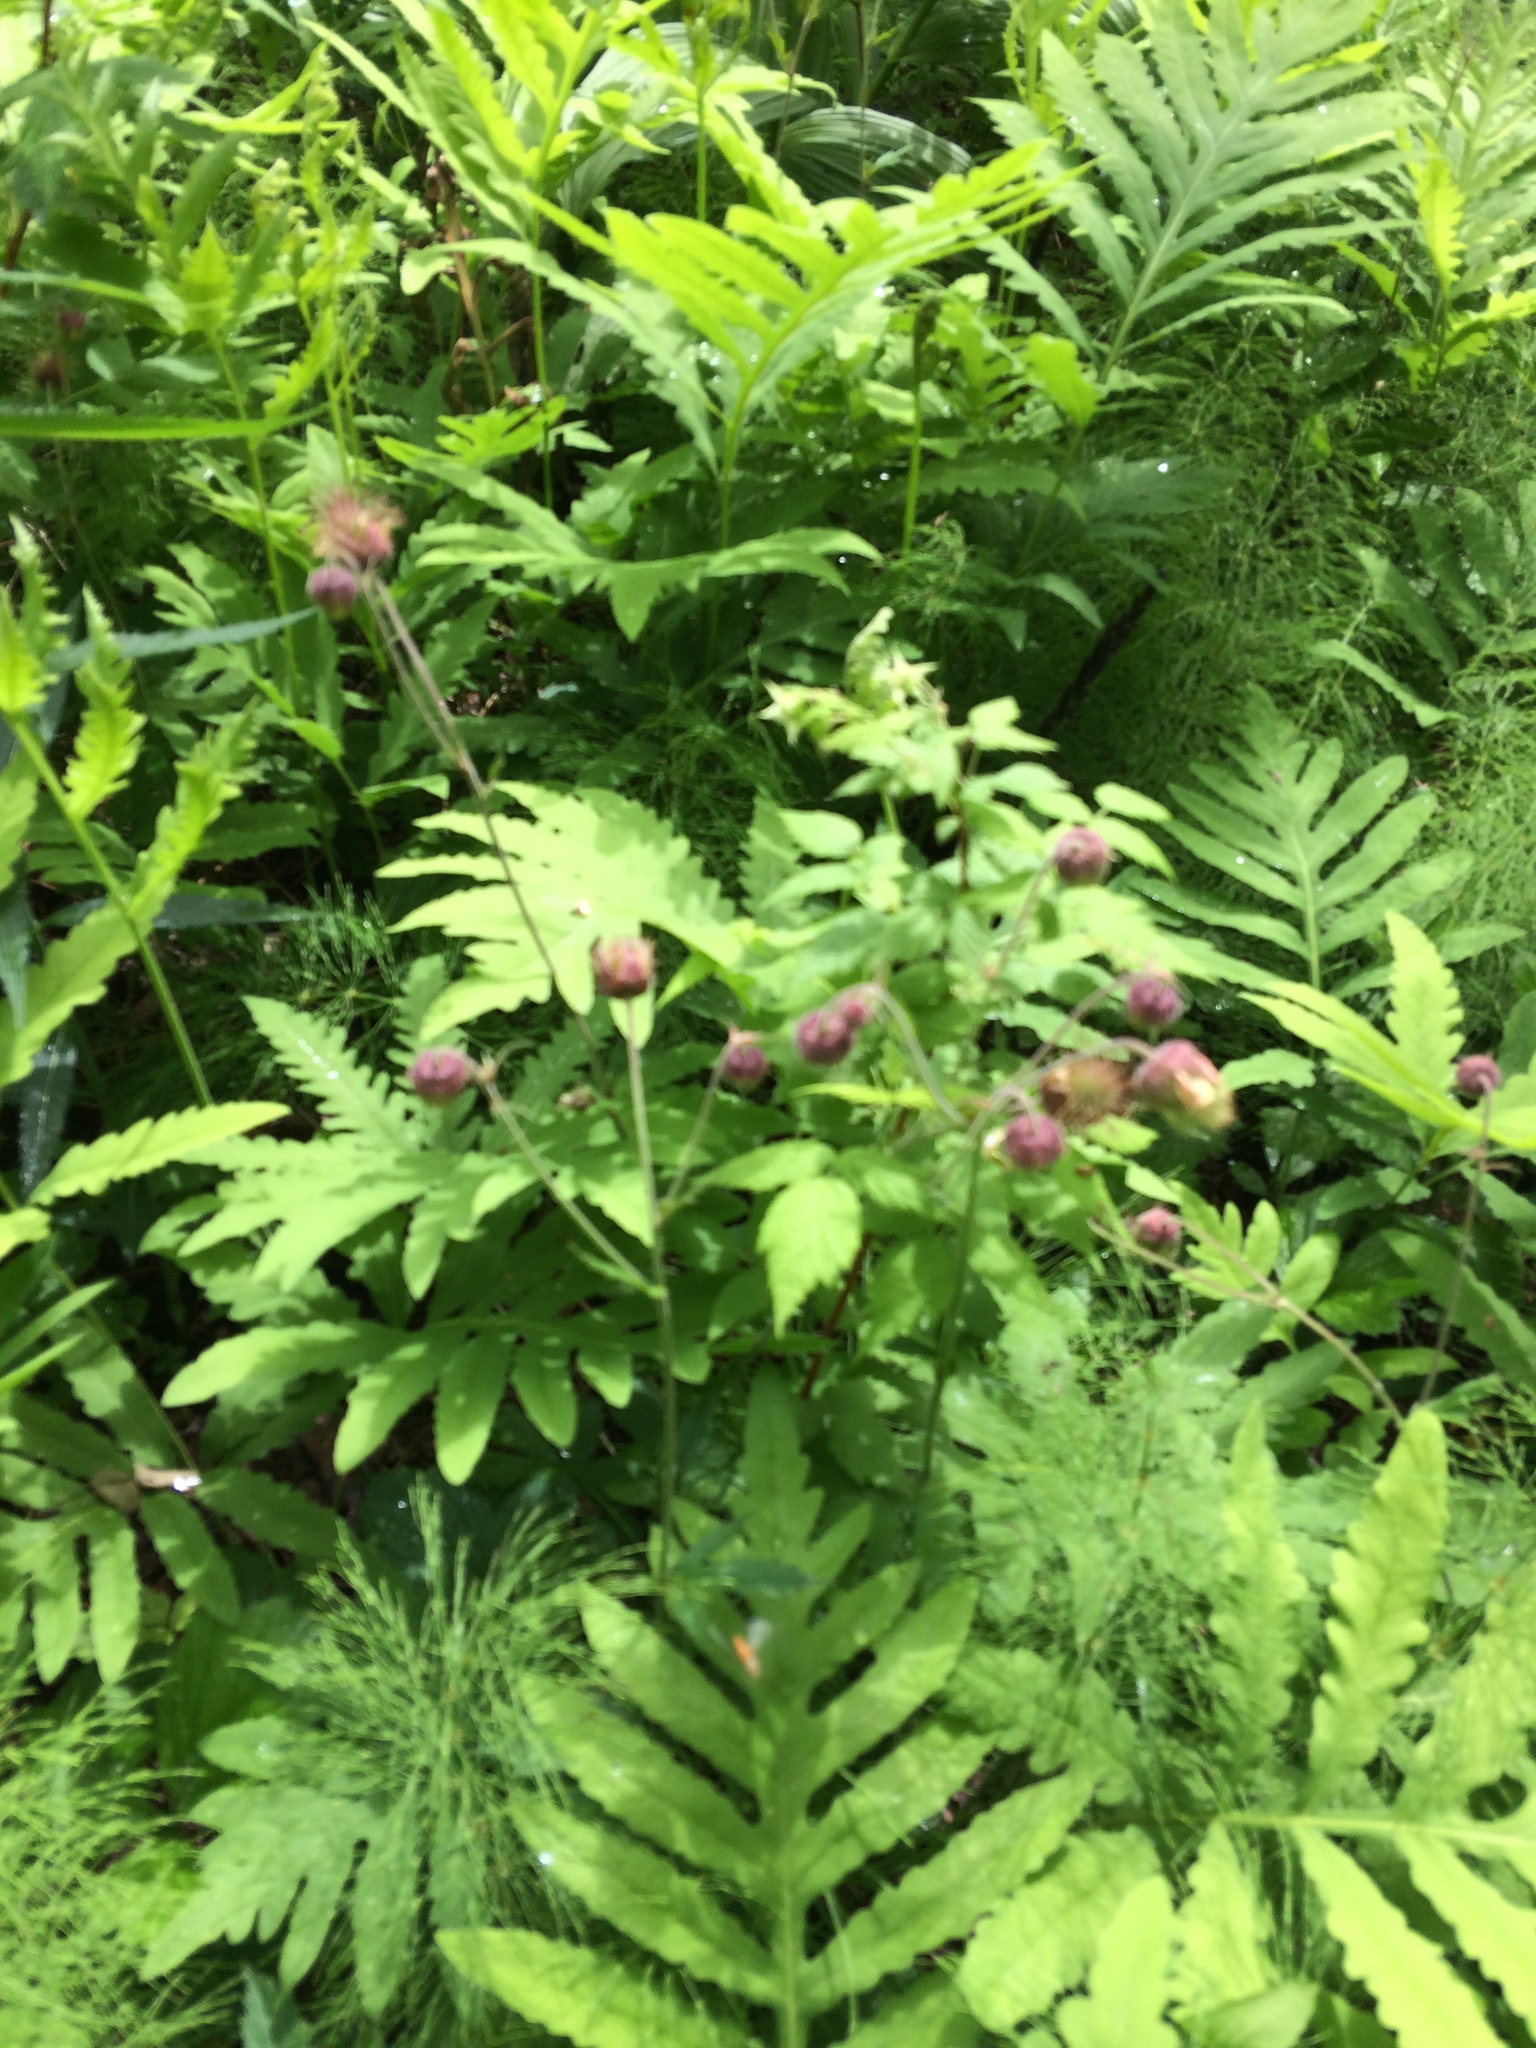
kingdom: Plantae
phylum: Tracheophyta
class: Magnoliopsida
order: Rosales
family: Rosaceae
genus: Geum
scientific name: Geum rivale
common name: Water avens
